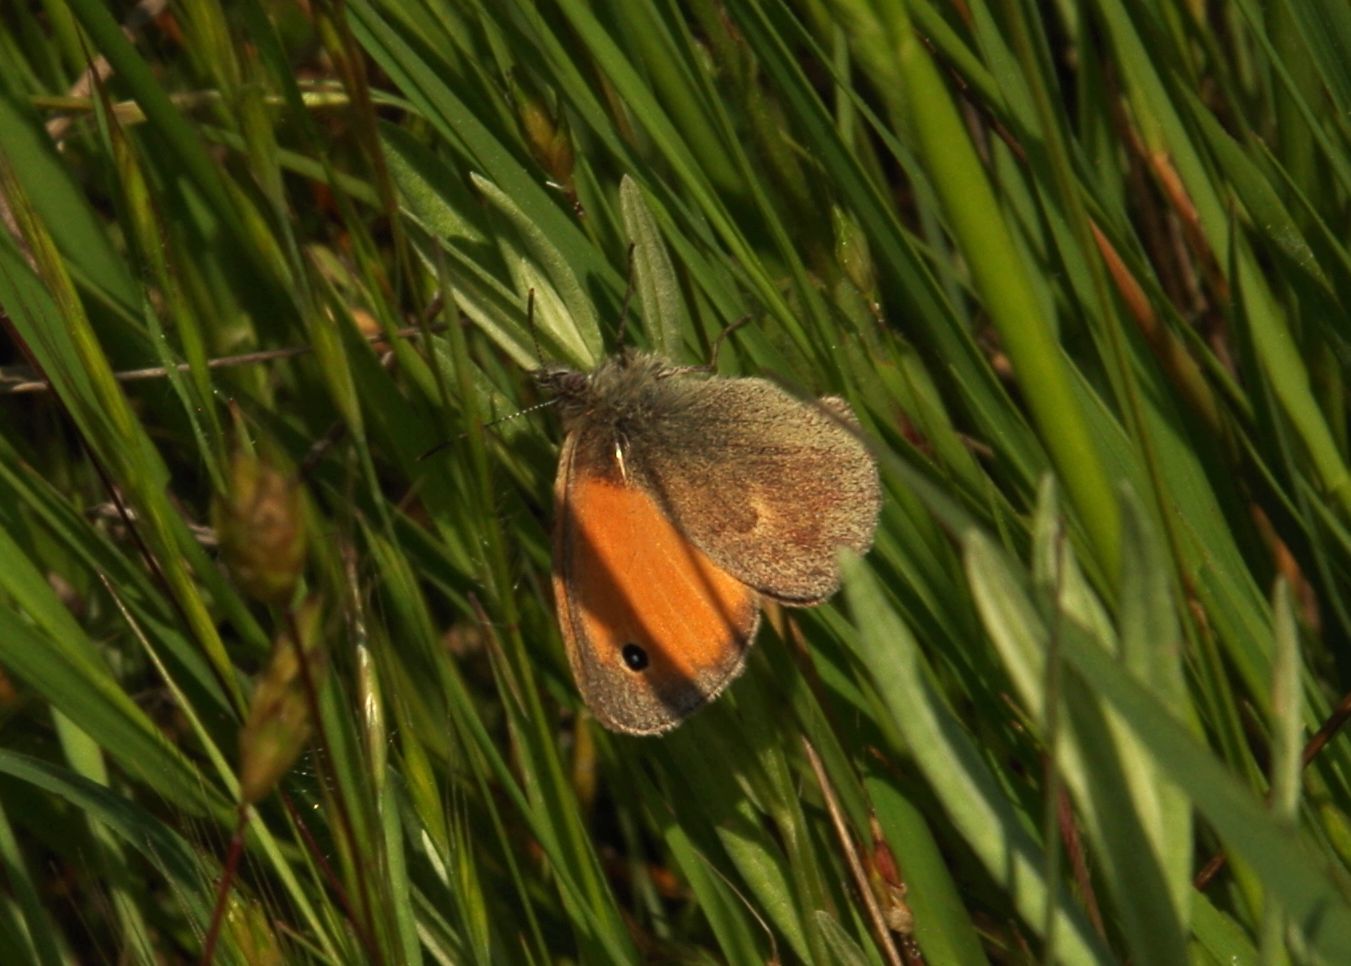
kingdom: Animalia
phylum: Arthropoda
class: Insecta
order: Lepidoptera
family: Nymphalidae
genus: Coenonympha
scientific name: Coenonympha pamphilus
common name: Small heath
